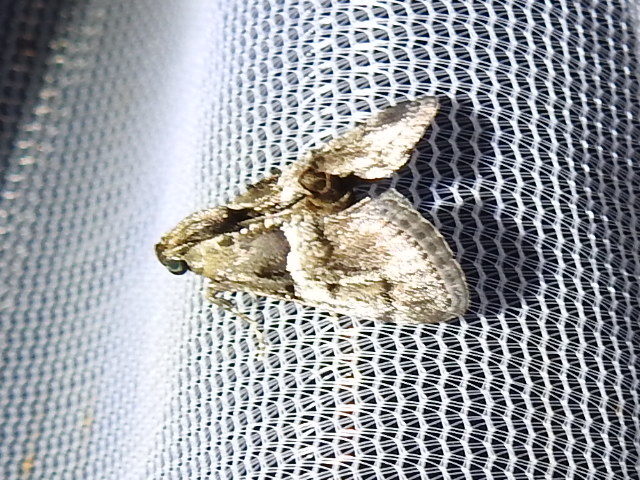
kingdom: Animalia
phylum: Arthropoda
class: Insecta
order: Lepidoptera
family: Pyralidae
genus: Macalla
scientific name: Macalla zelleri
